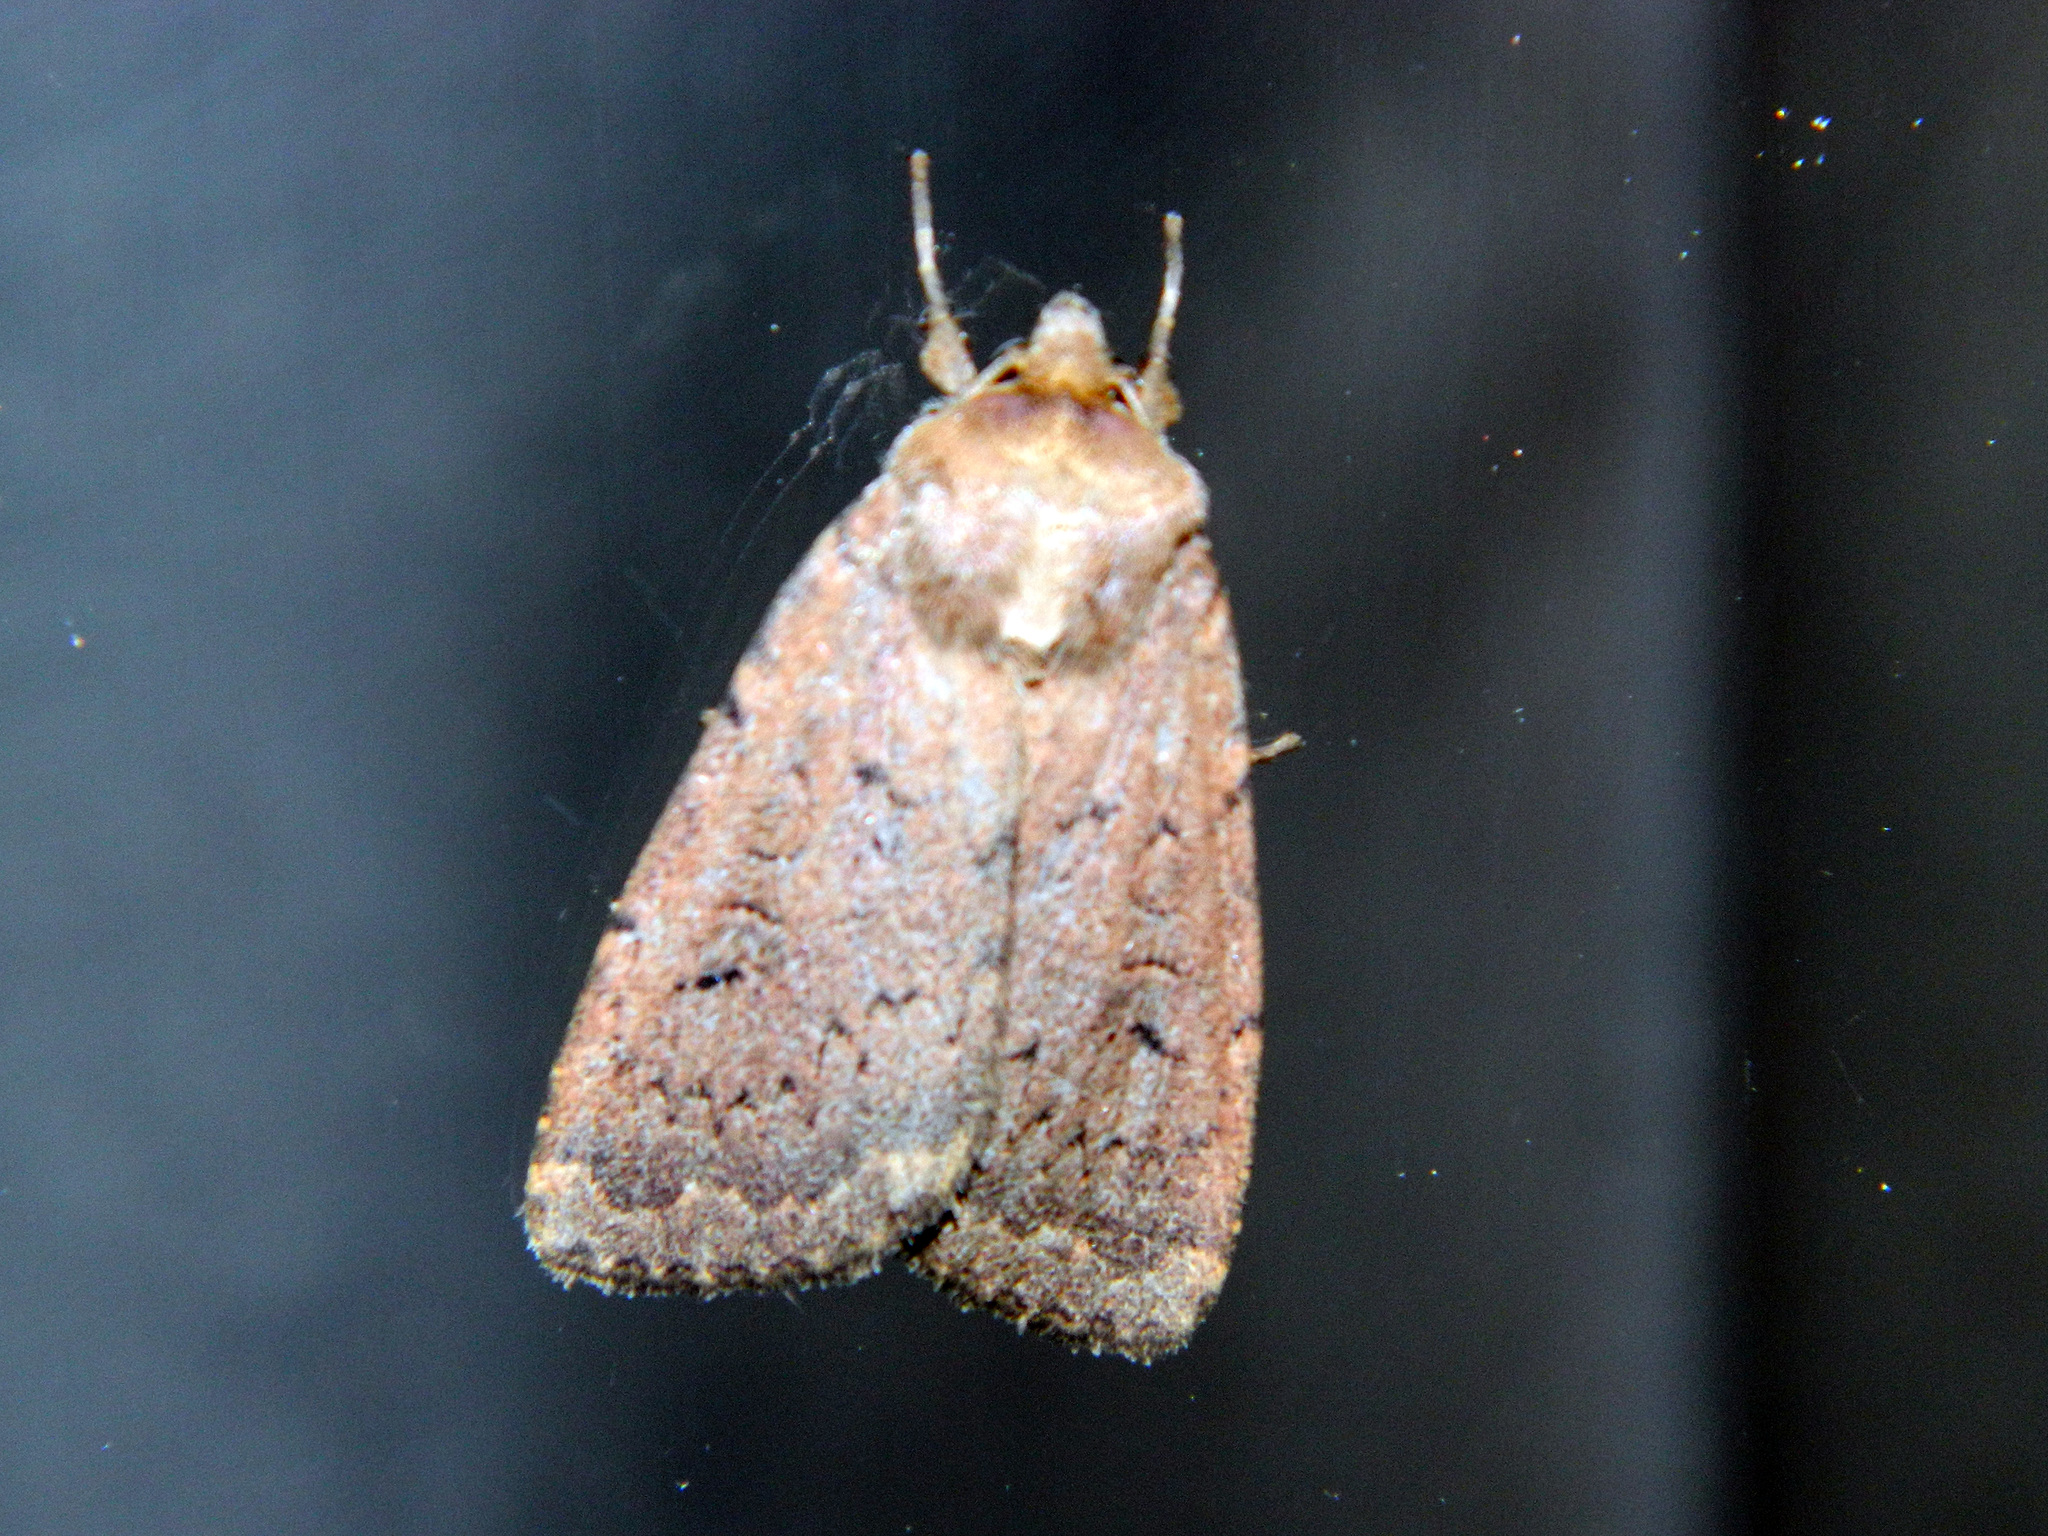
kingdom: Animalia
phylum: Arthropoda
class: Insecta
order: Lepidoptera
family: Noctuidae
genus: Graphiphora
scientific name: Graphiphora augur
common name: Double dart
